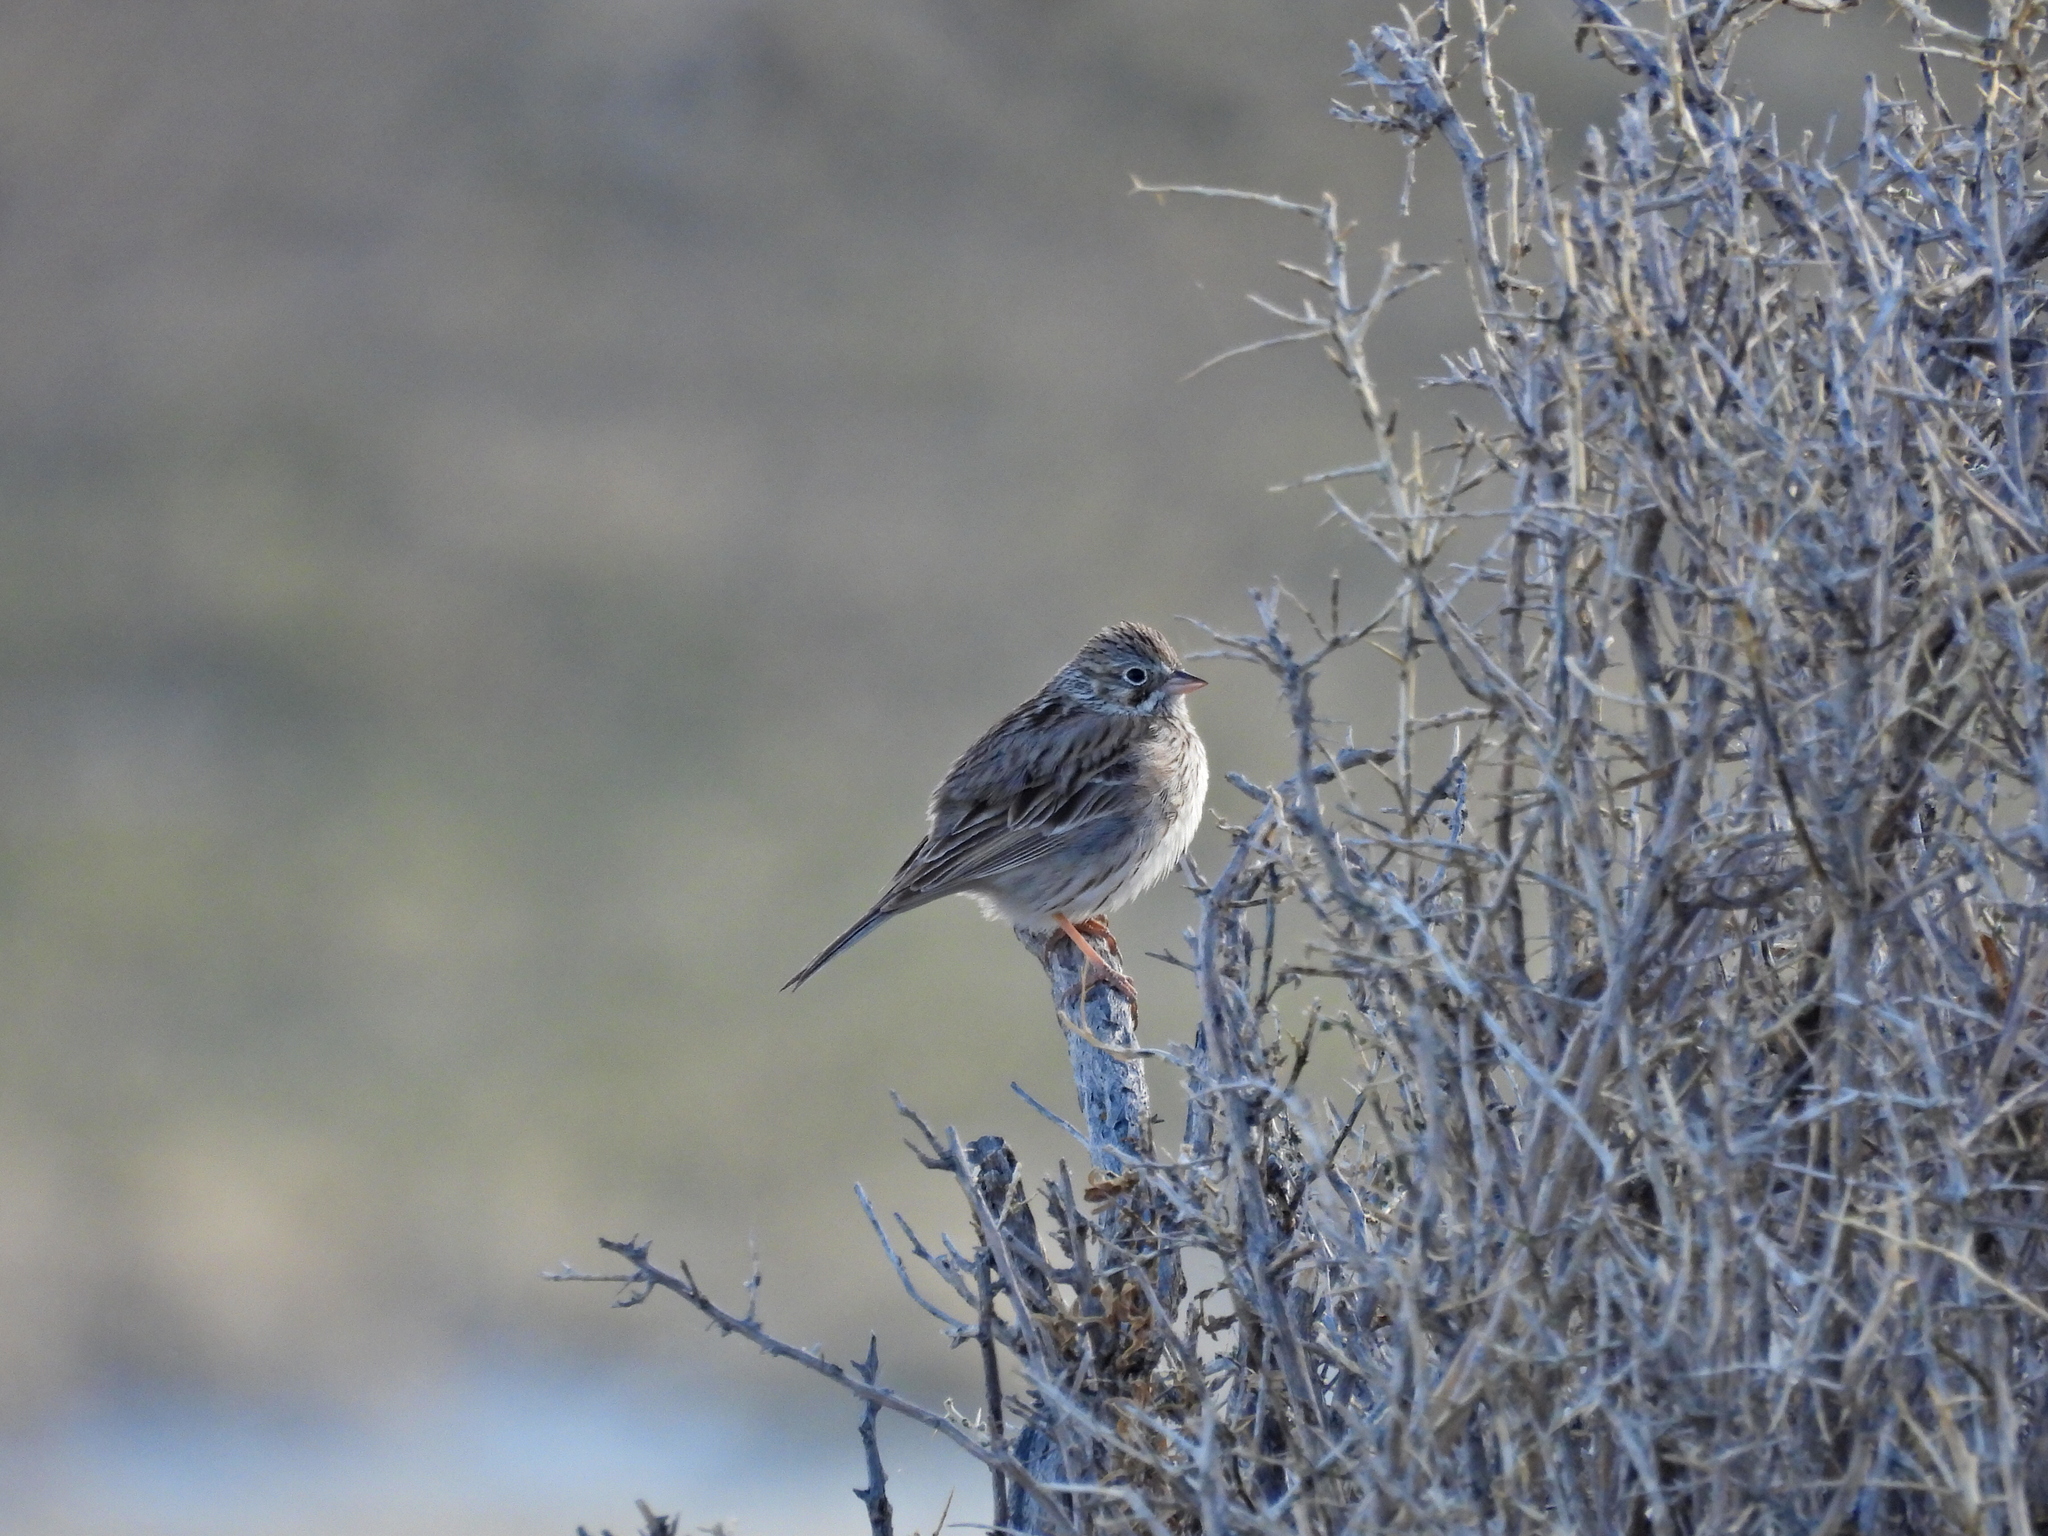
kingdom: Animalia
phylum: Chordata
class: Aves
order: Passeriformes
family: Passerellidae
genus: Pooecetes
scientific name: Pooecetes gramineus
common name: Vesper sparrow
